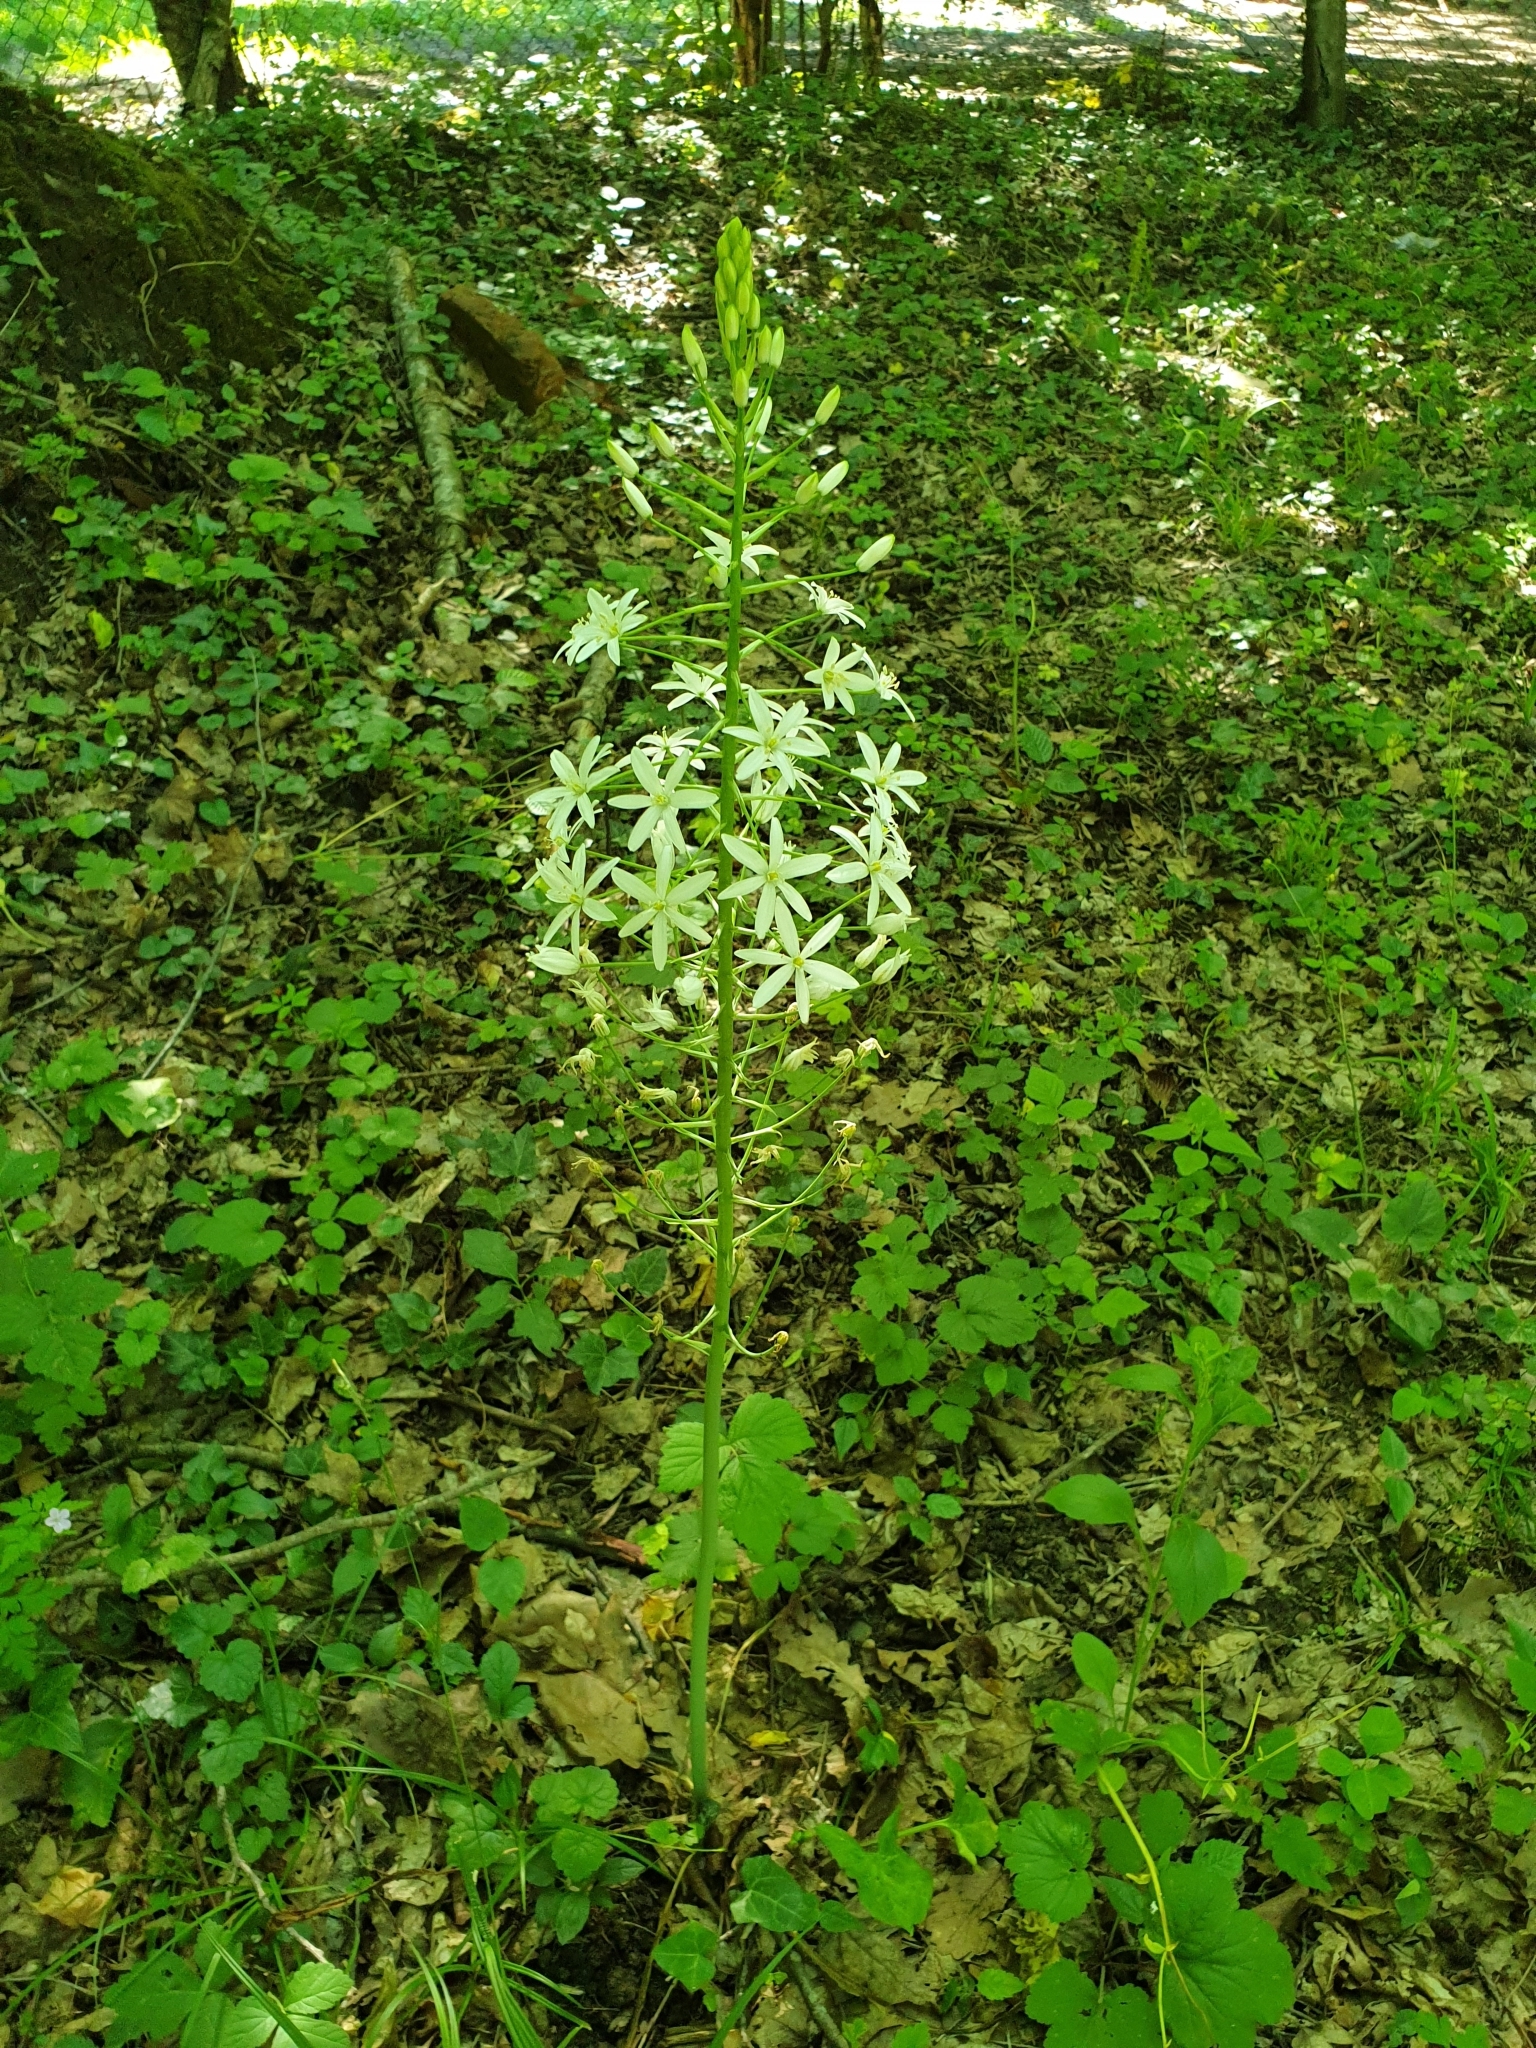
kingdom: Plantae
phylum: Tracheophyta
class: Liliopsida
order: Asparagales
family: Asparagaceae
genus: Ornithogalum
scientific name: Ornithogalum ponticum
